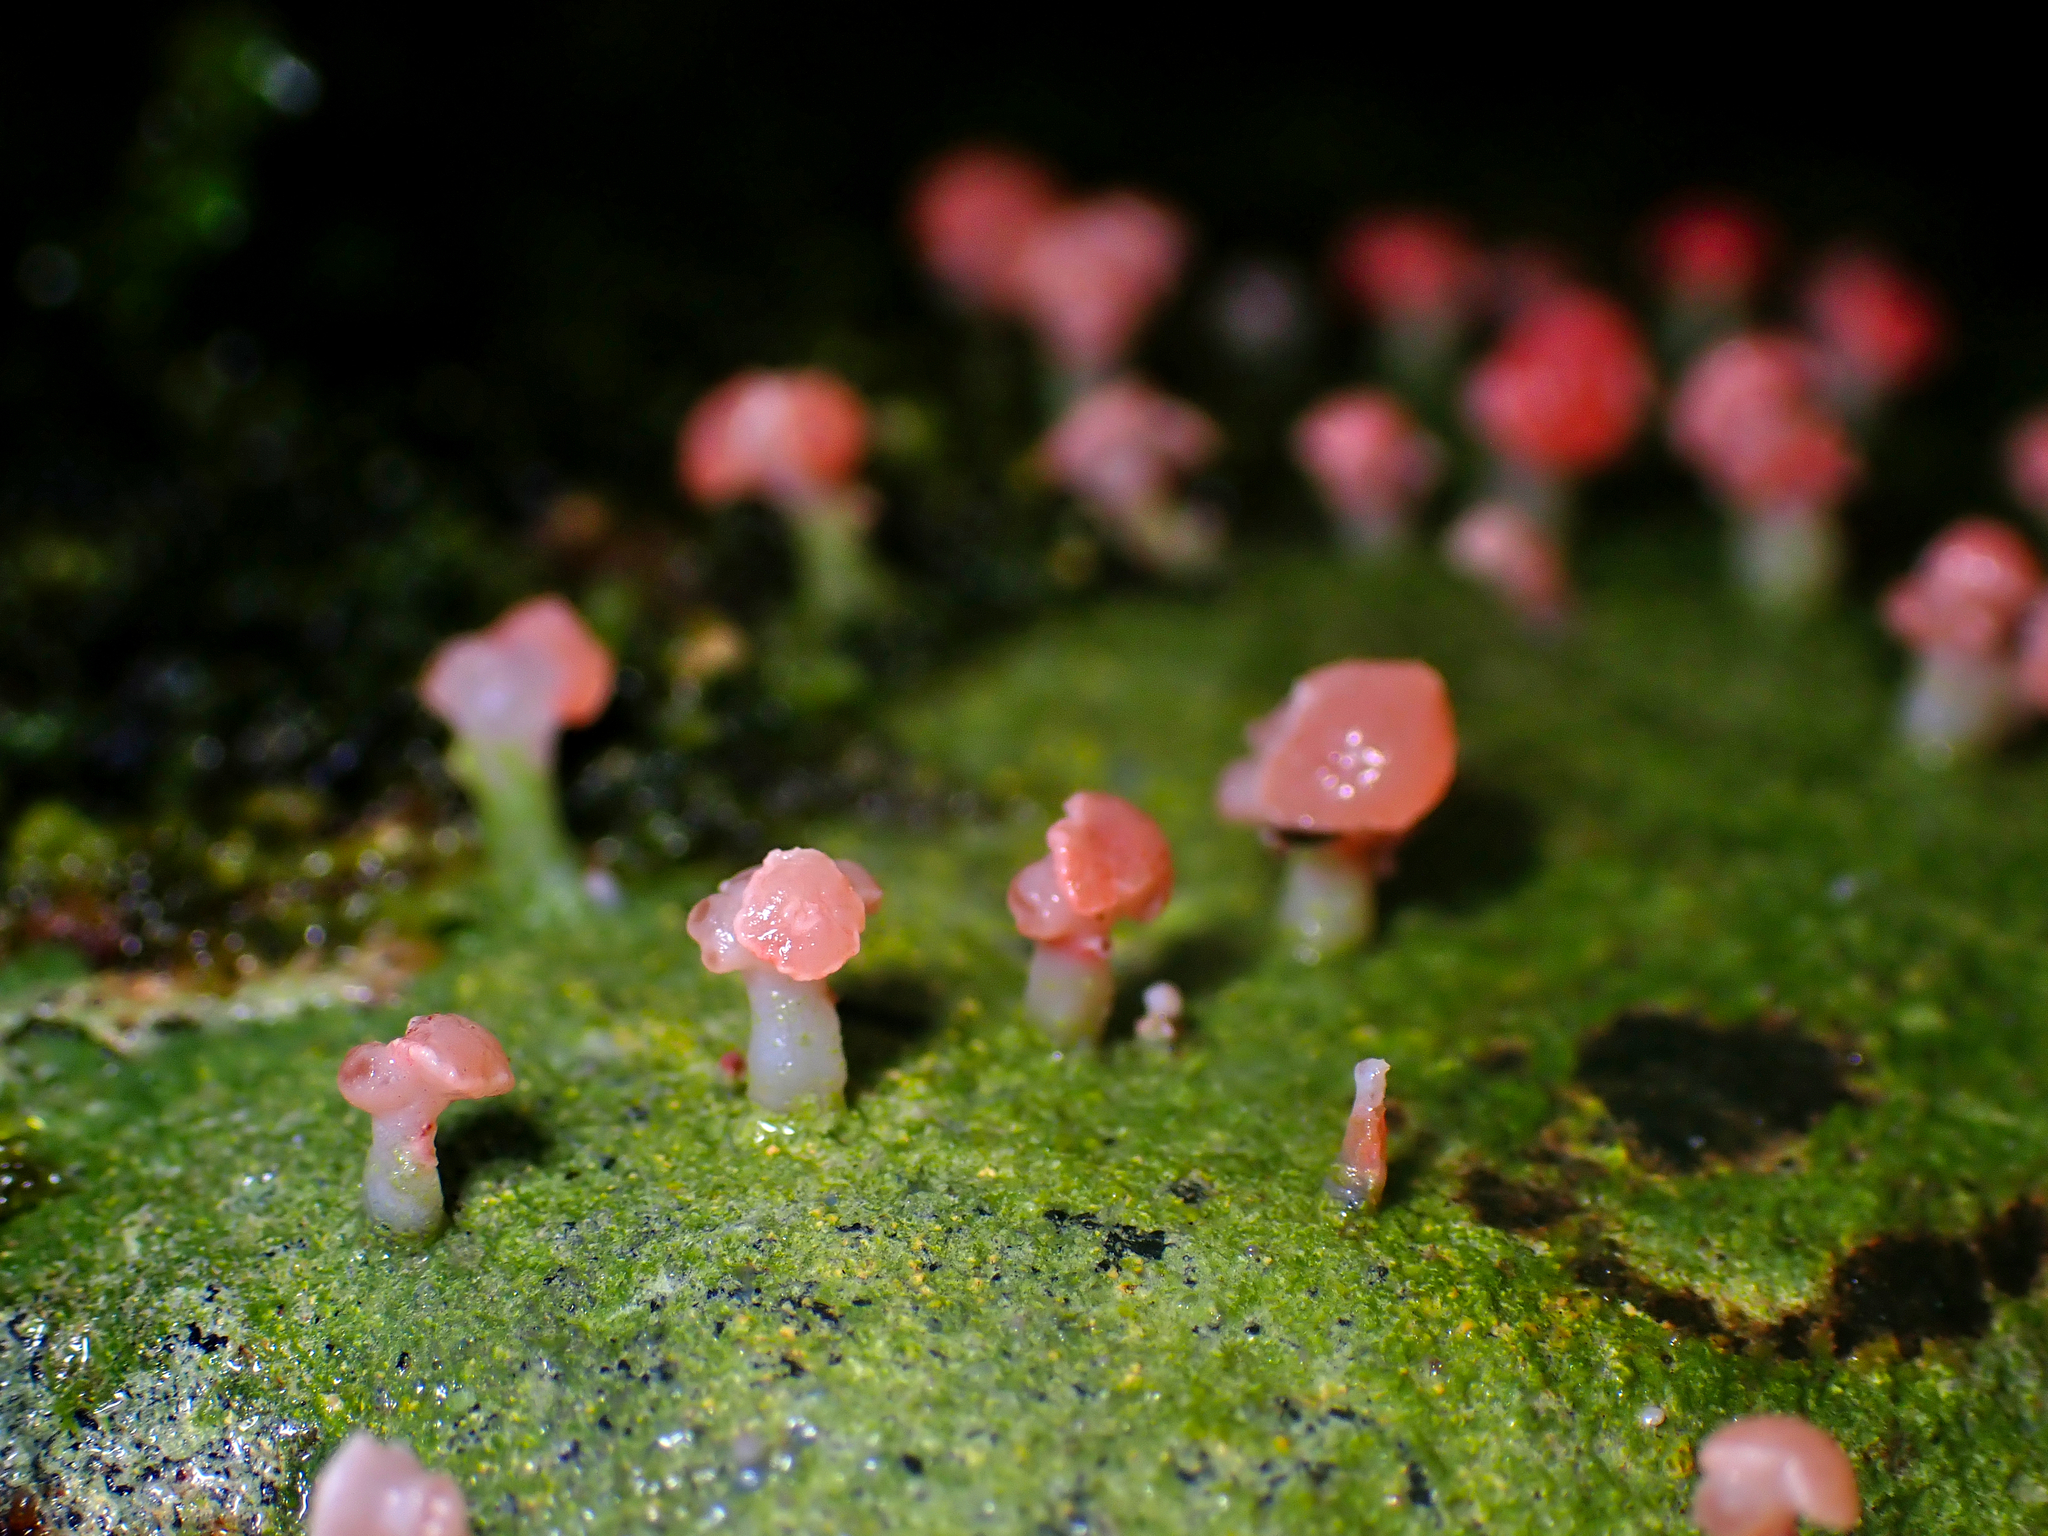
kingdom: Fungi
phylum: Ascomycota
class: Lecanoromycetes
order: Baeomycetales
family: Baeomycetaceae
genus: Baeomyces
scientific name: Baeomyces heteromorphus
